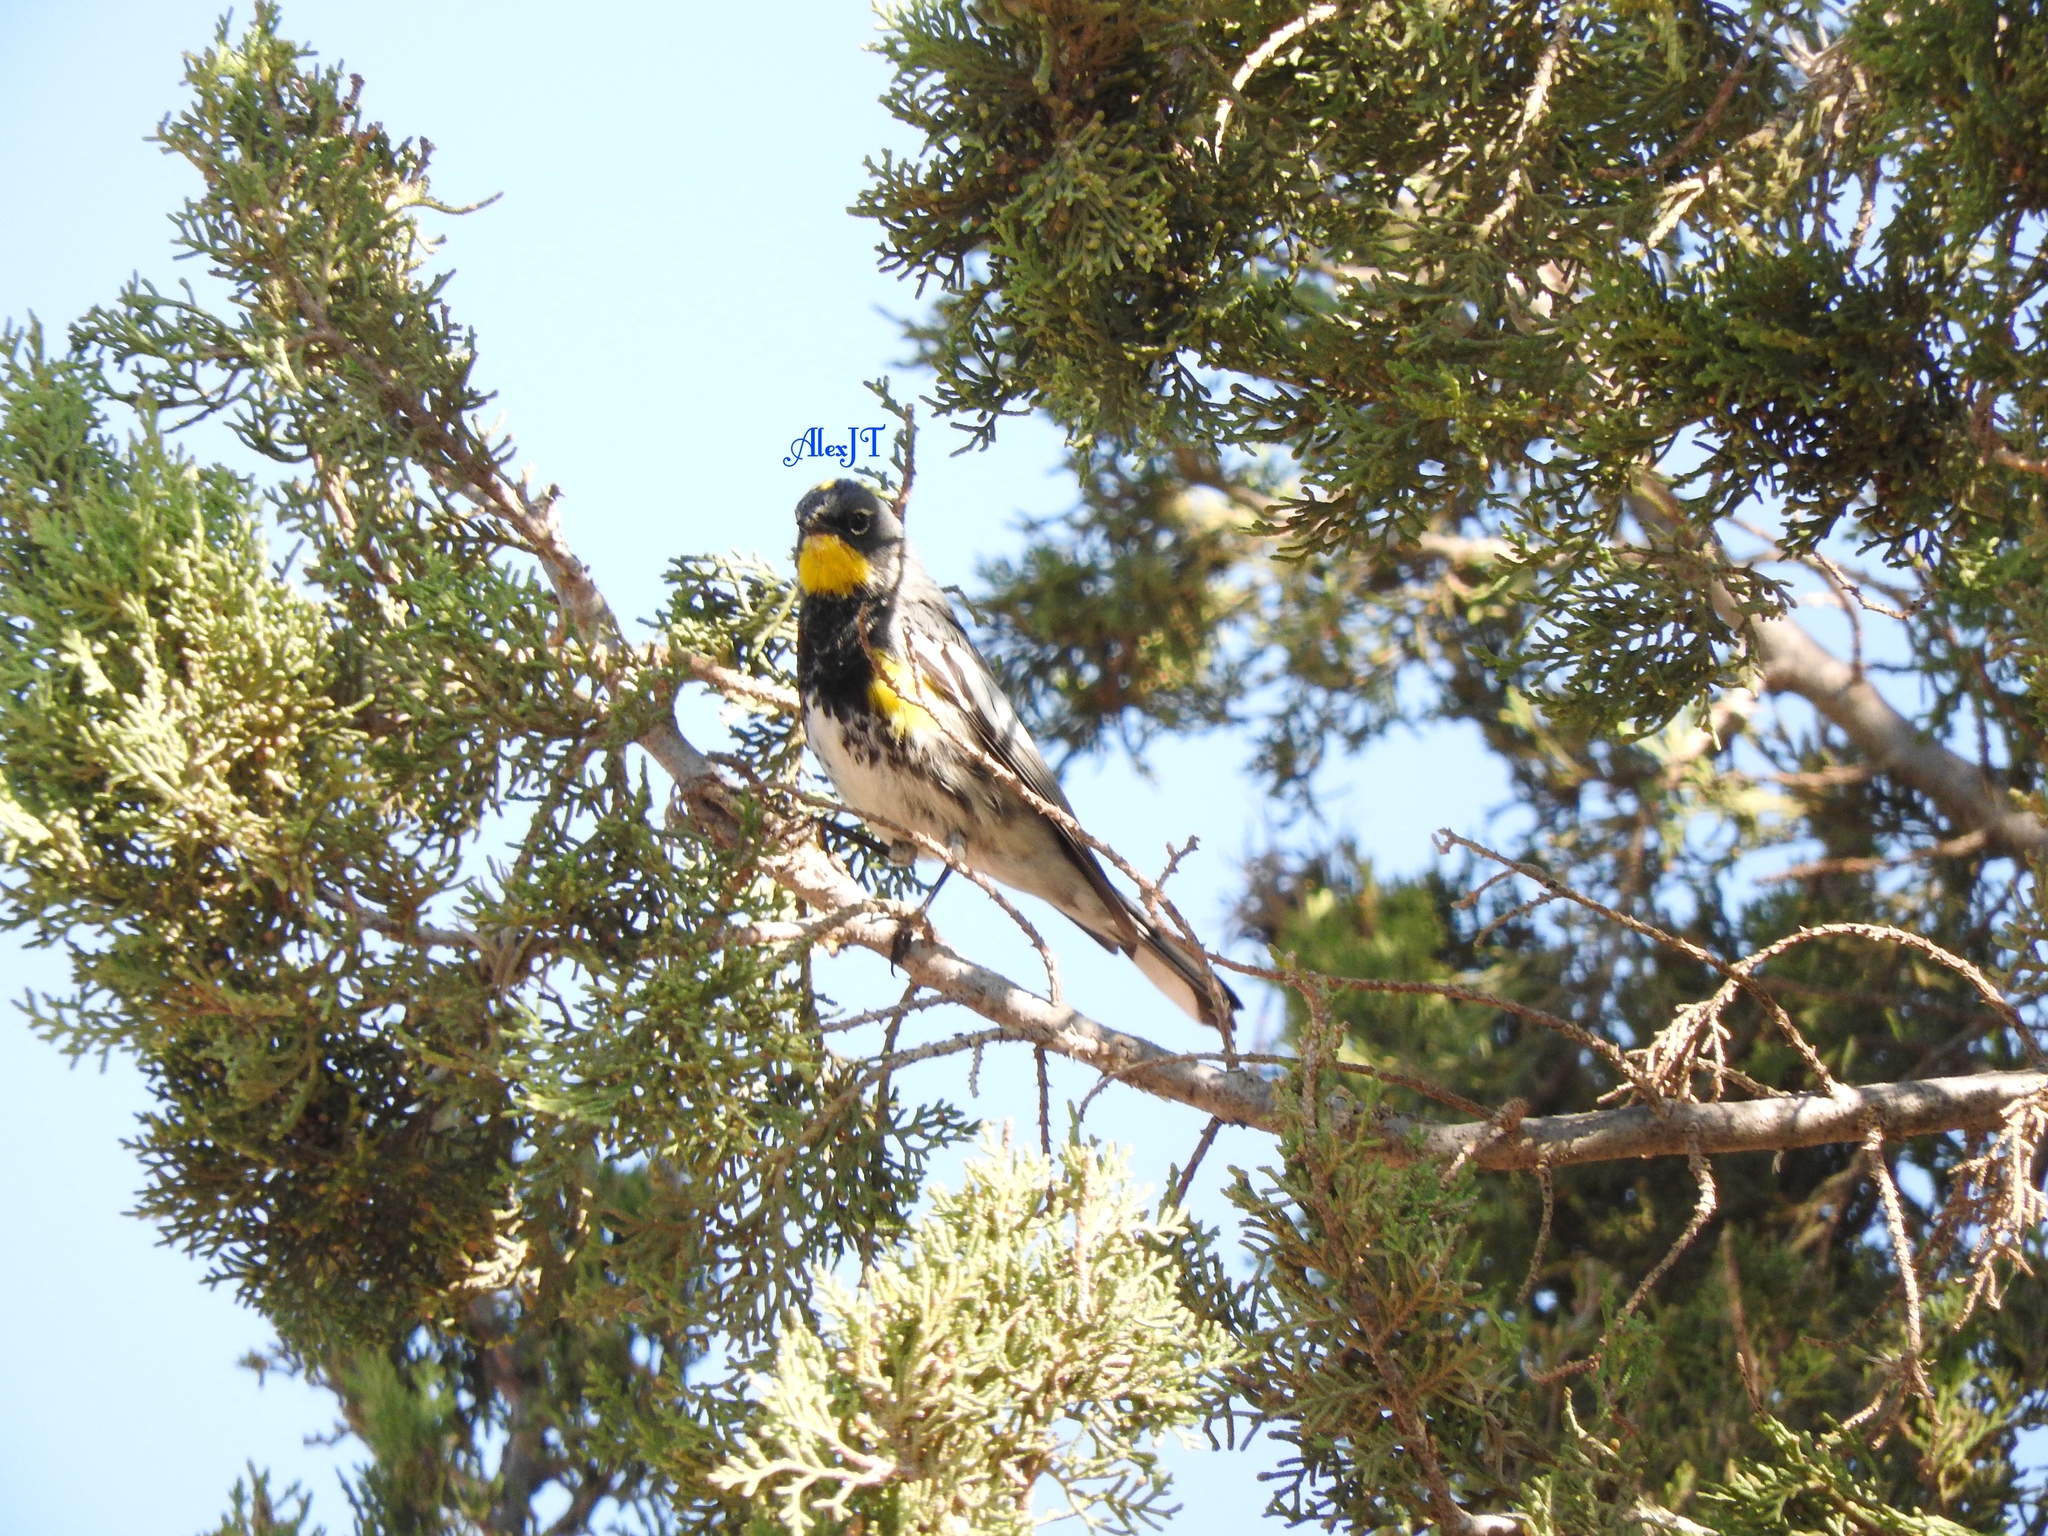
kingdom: Animalia
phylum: Chordata
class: Aves
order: Passeriformes
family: Parulidae
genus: Setophaga
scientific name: Setophaga auduboni
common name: Audubon's warbler
